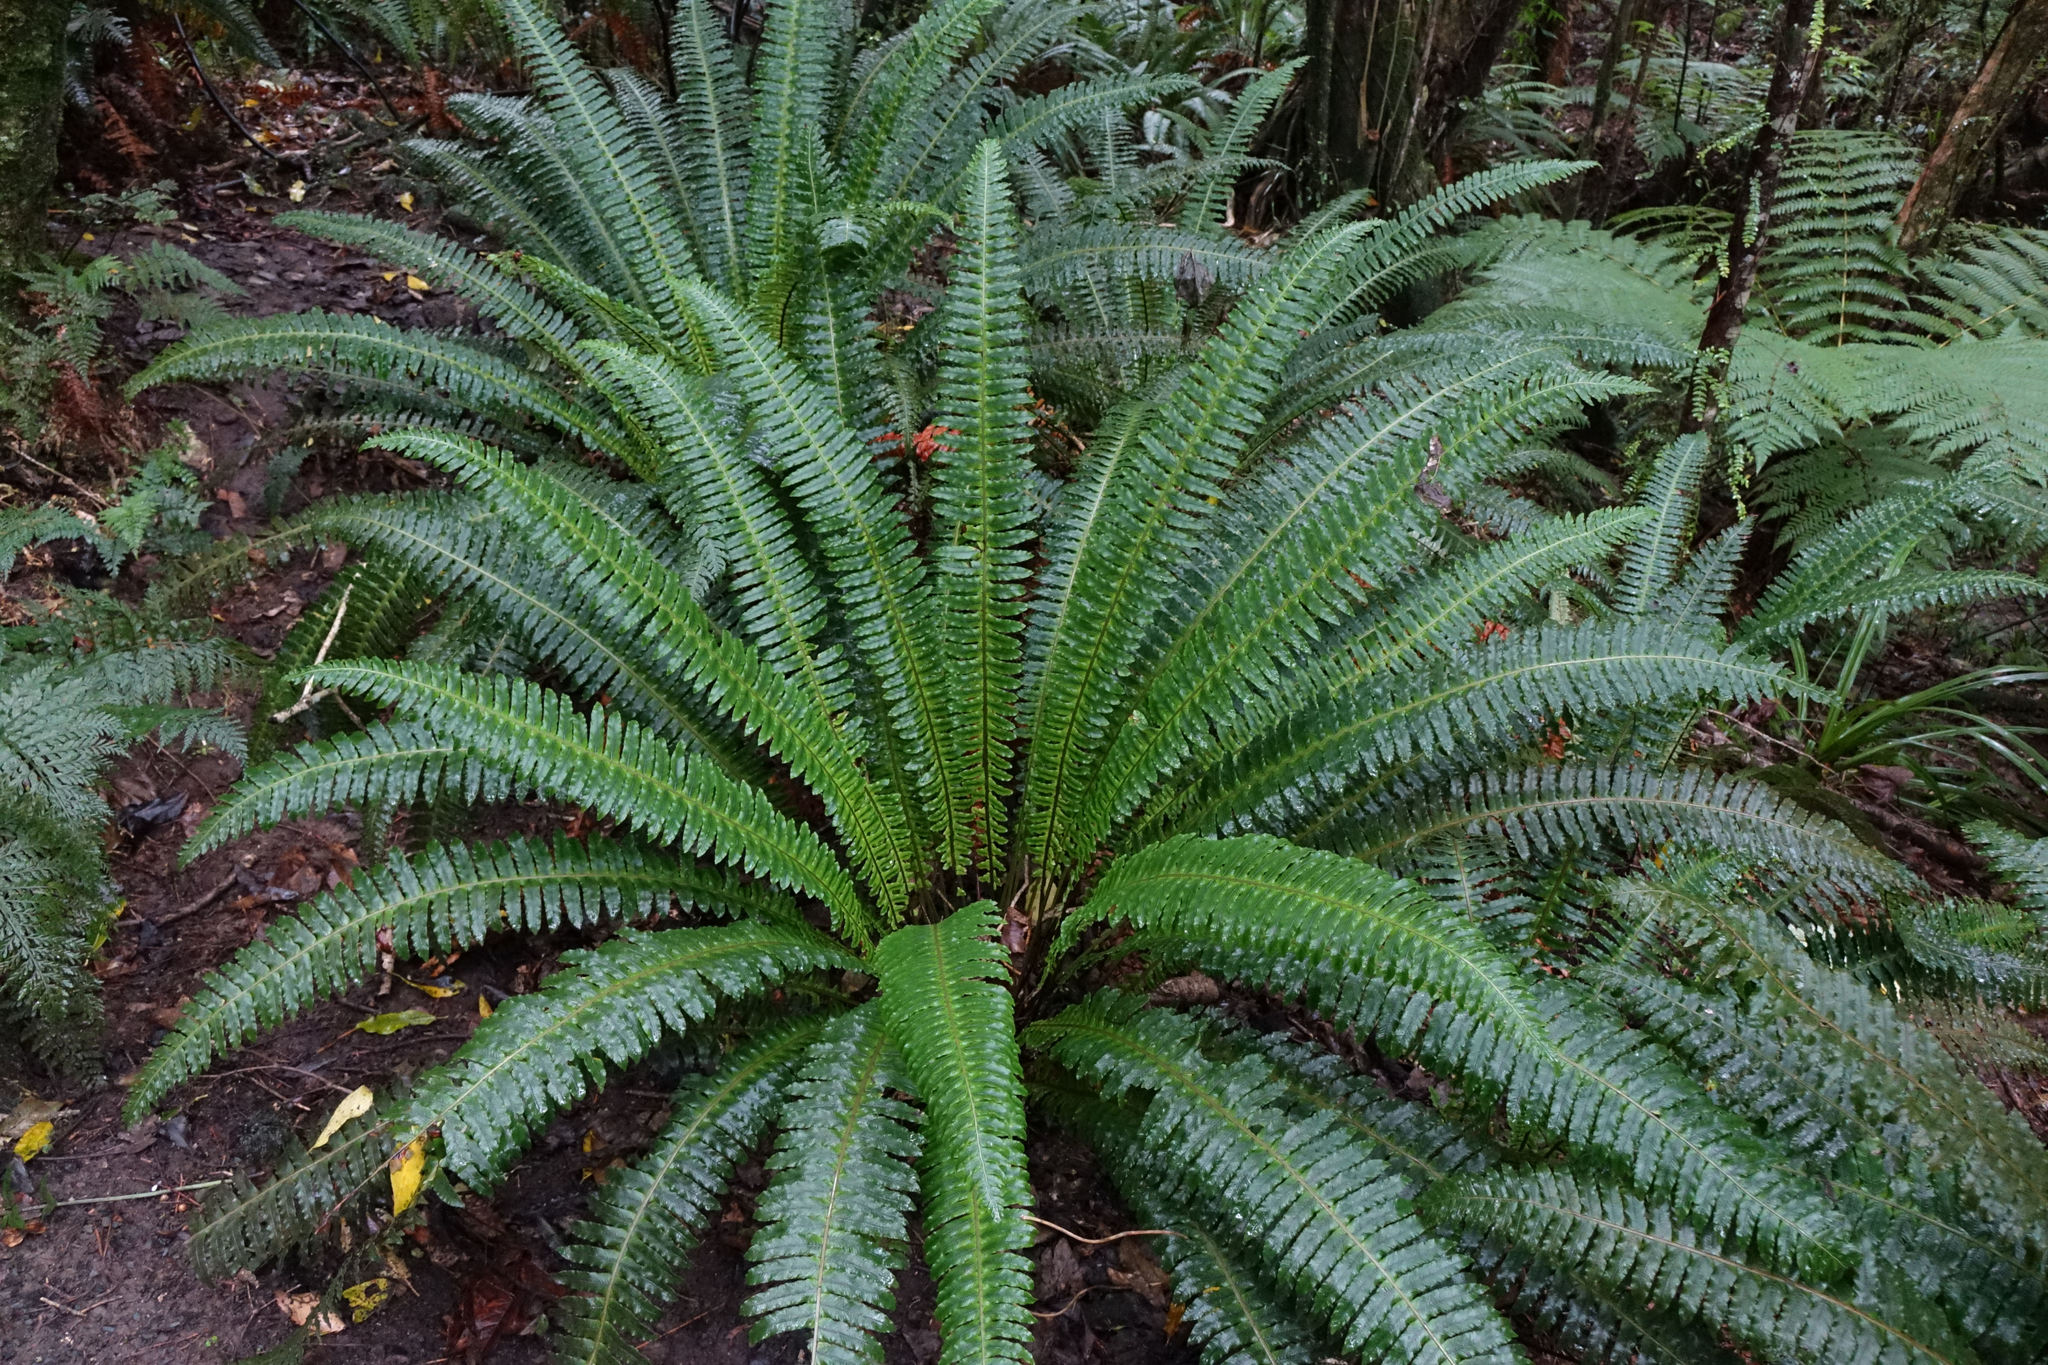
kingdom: Plantae
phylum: Tracheophyta
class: Polypodiopsida
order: Polypodiales
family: Blechnaceae
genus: Lomaria
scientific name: Lomaria discolor
